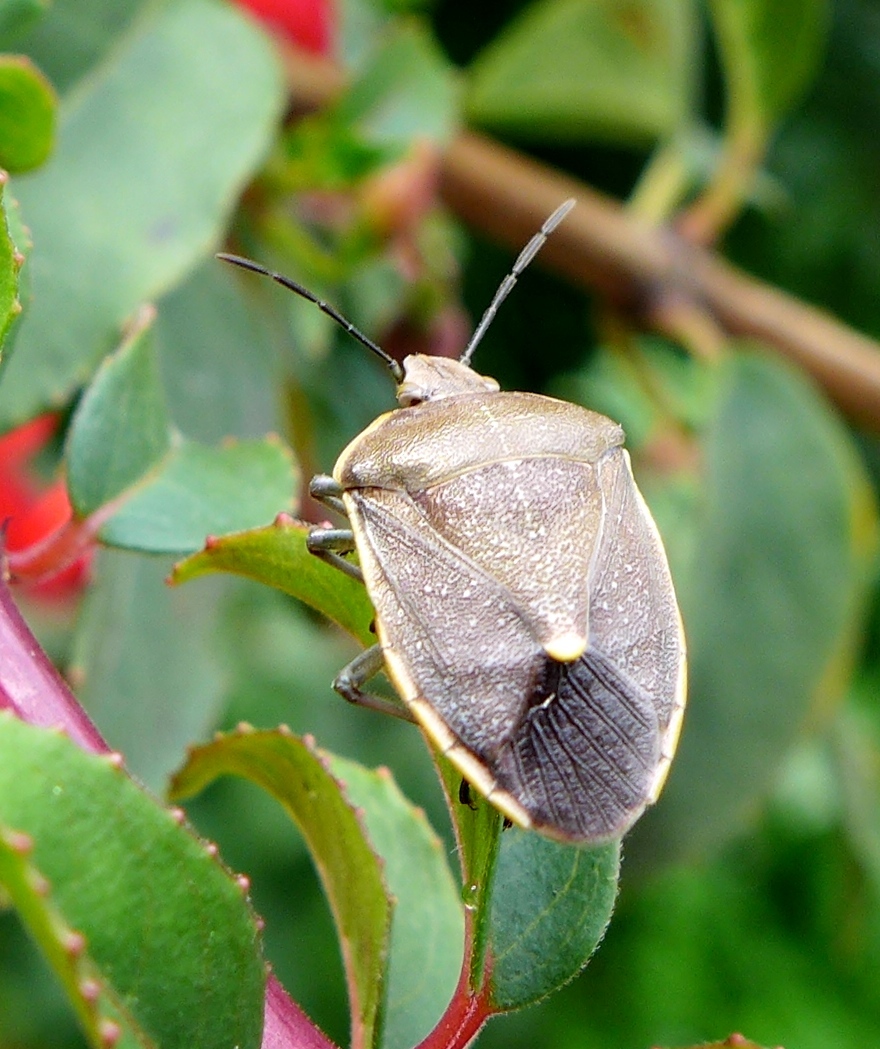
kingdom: Animalia
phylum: Arthropoda
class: Insecta
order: Hemiptera
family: Pentatomidae
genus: Chlorochroa
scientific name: Chlorochroa rossiana
